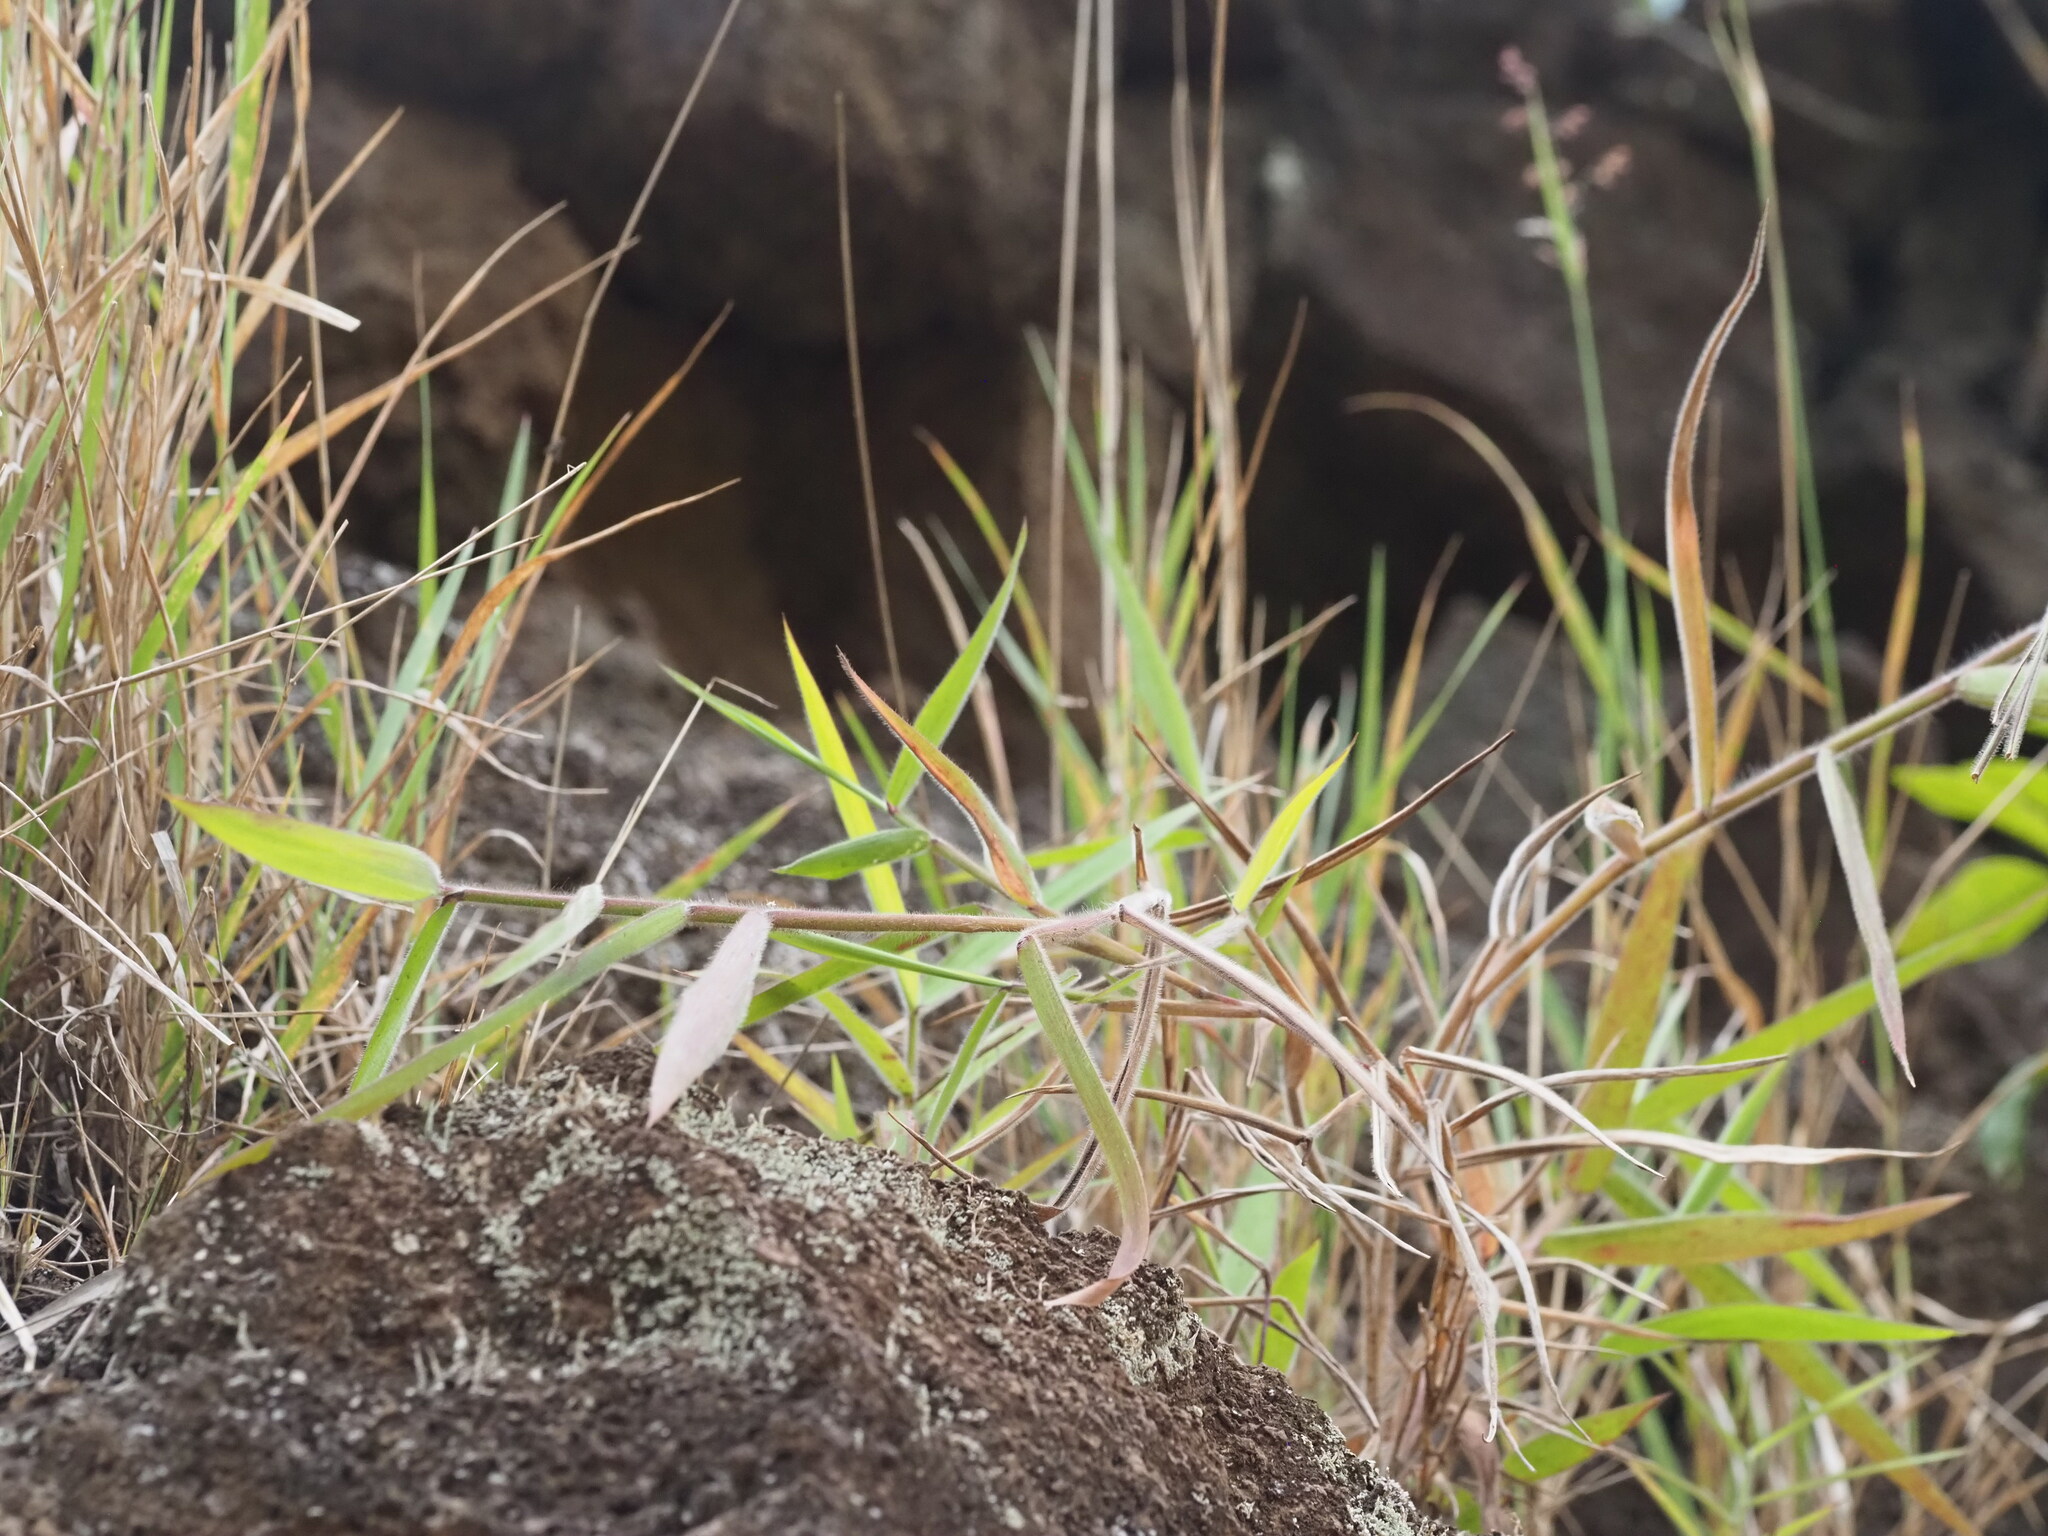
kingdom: Plantae
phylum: Tracheophyta
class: Liliopsida
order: Poales
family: Poaceae
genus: Melinis
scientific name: Melinis minutiflora
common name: Molassesgrass
